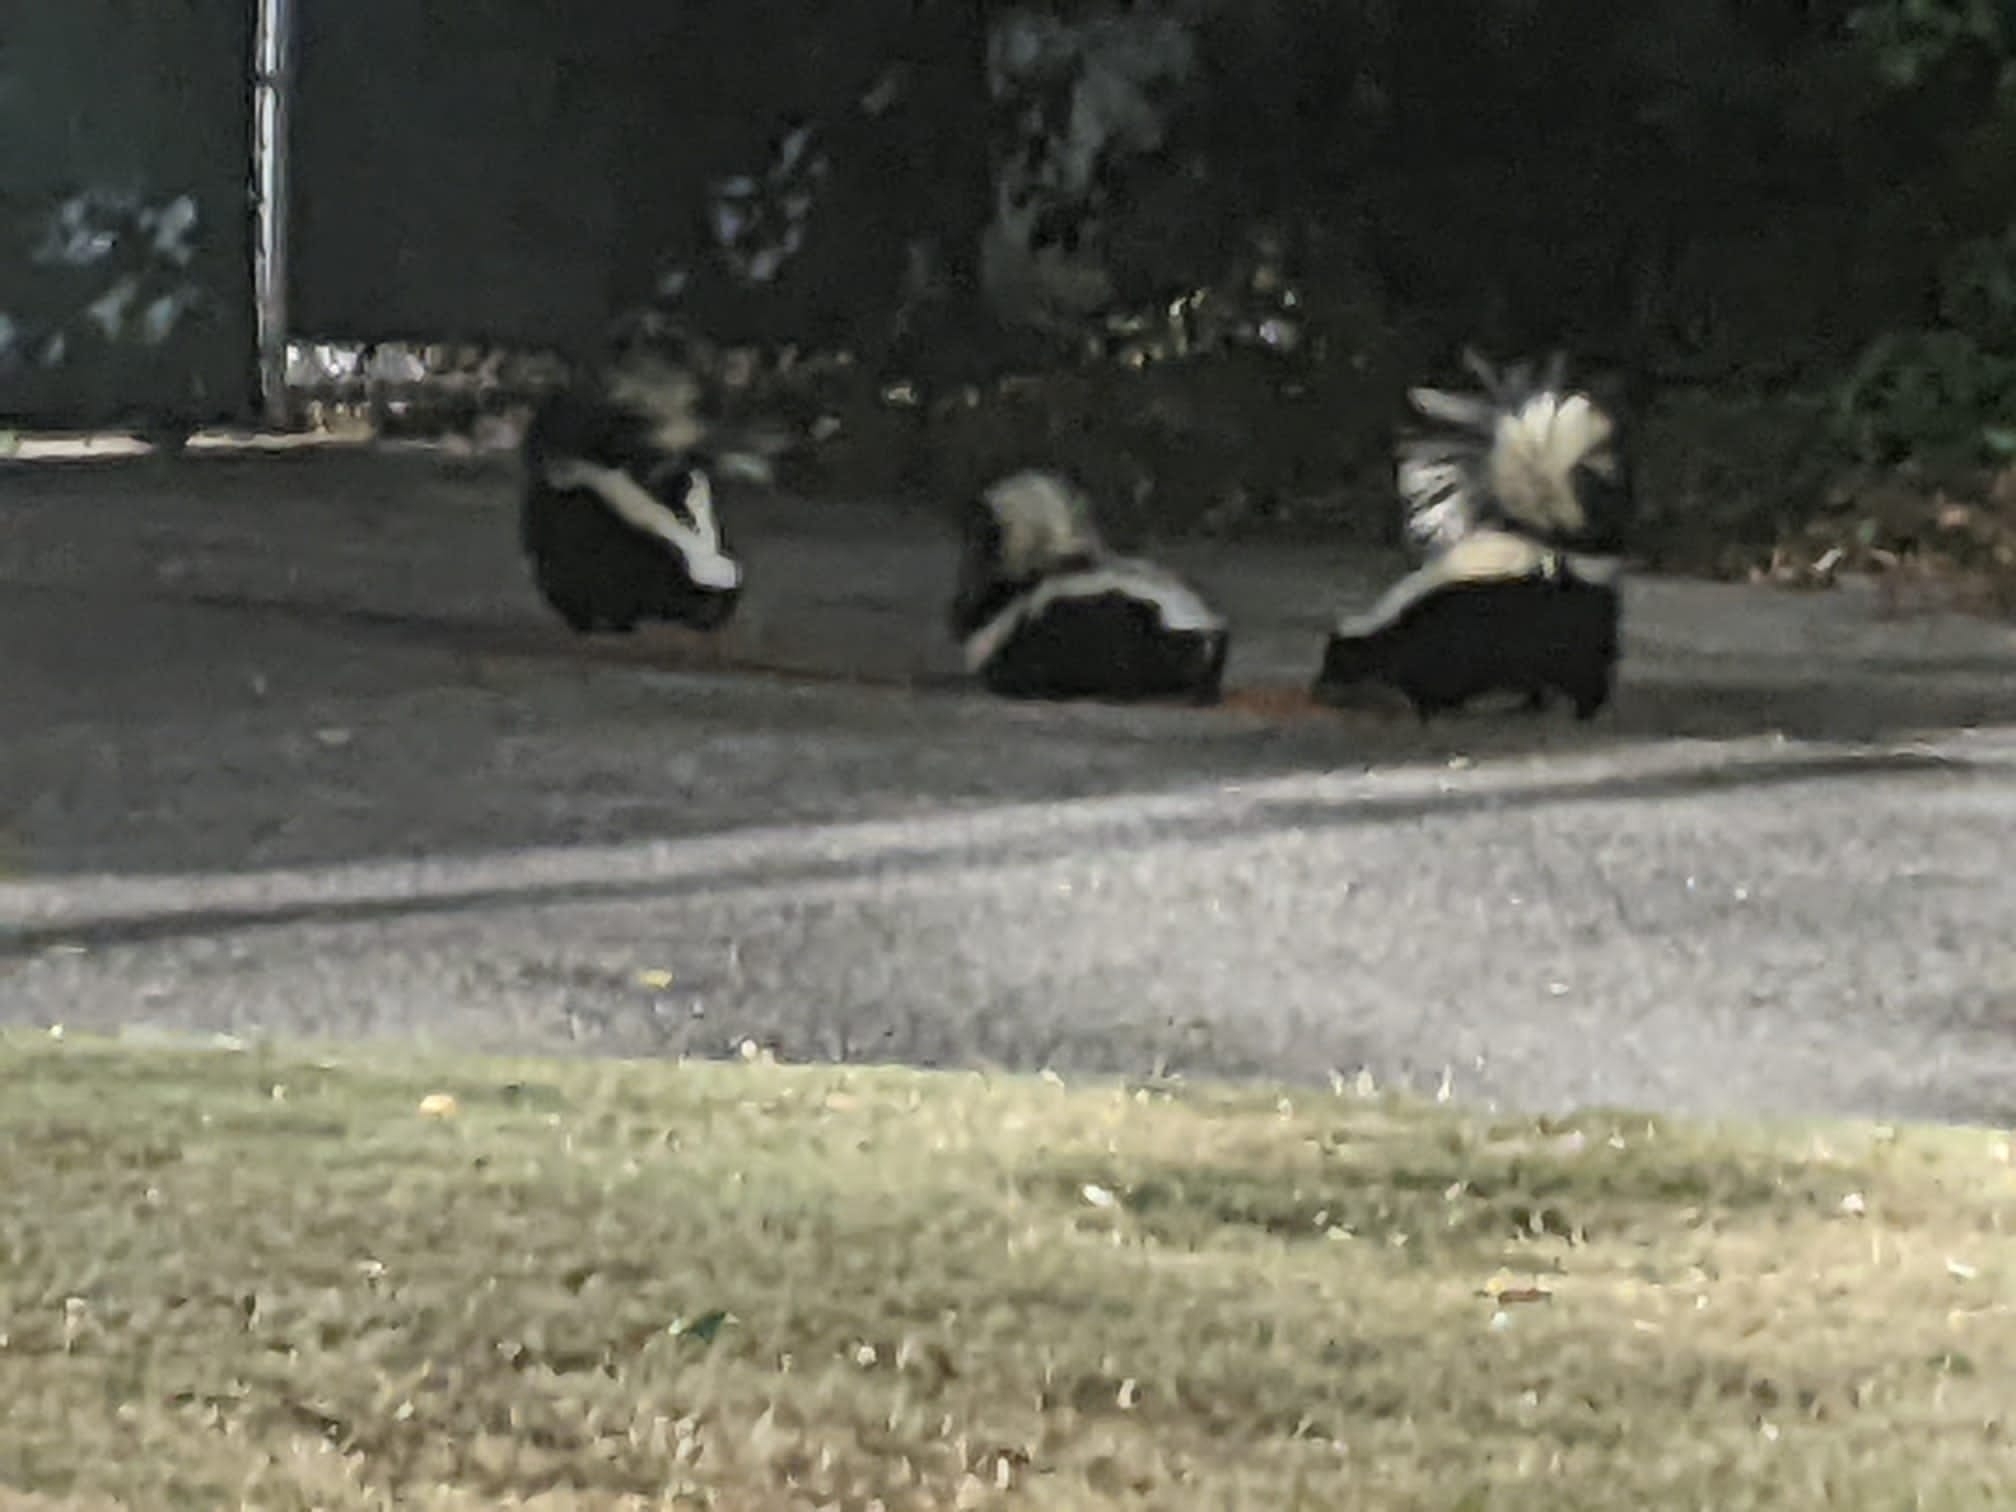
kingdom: Animalia
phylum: Chordata
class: Mammalia
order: Carnivora
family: Mephitidae
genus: Mephitis
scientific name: Mephitis mephitis
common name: Striped skunk
